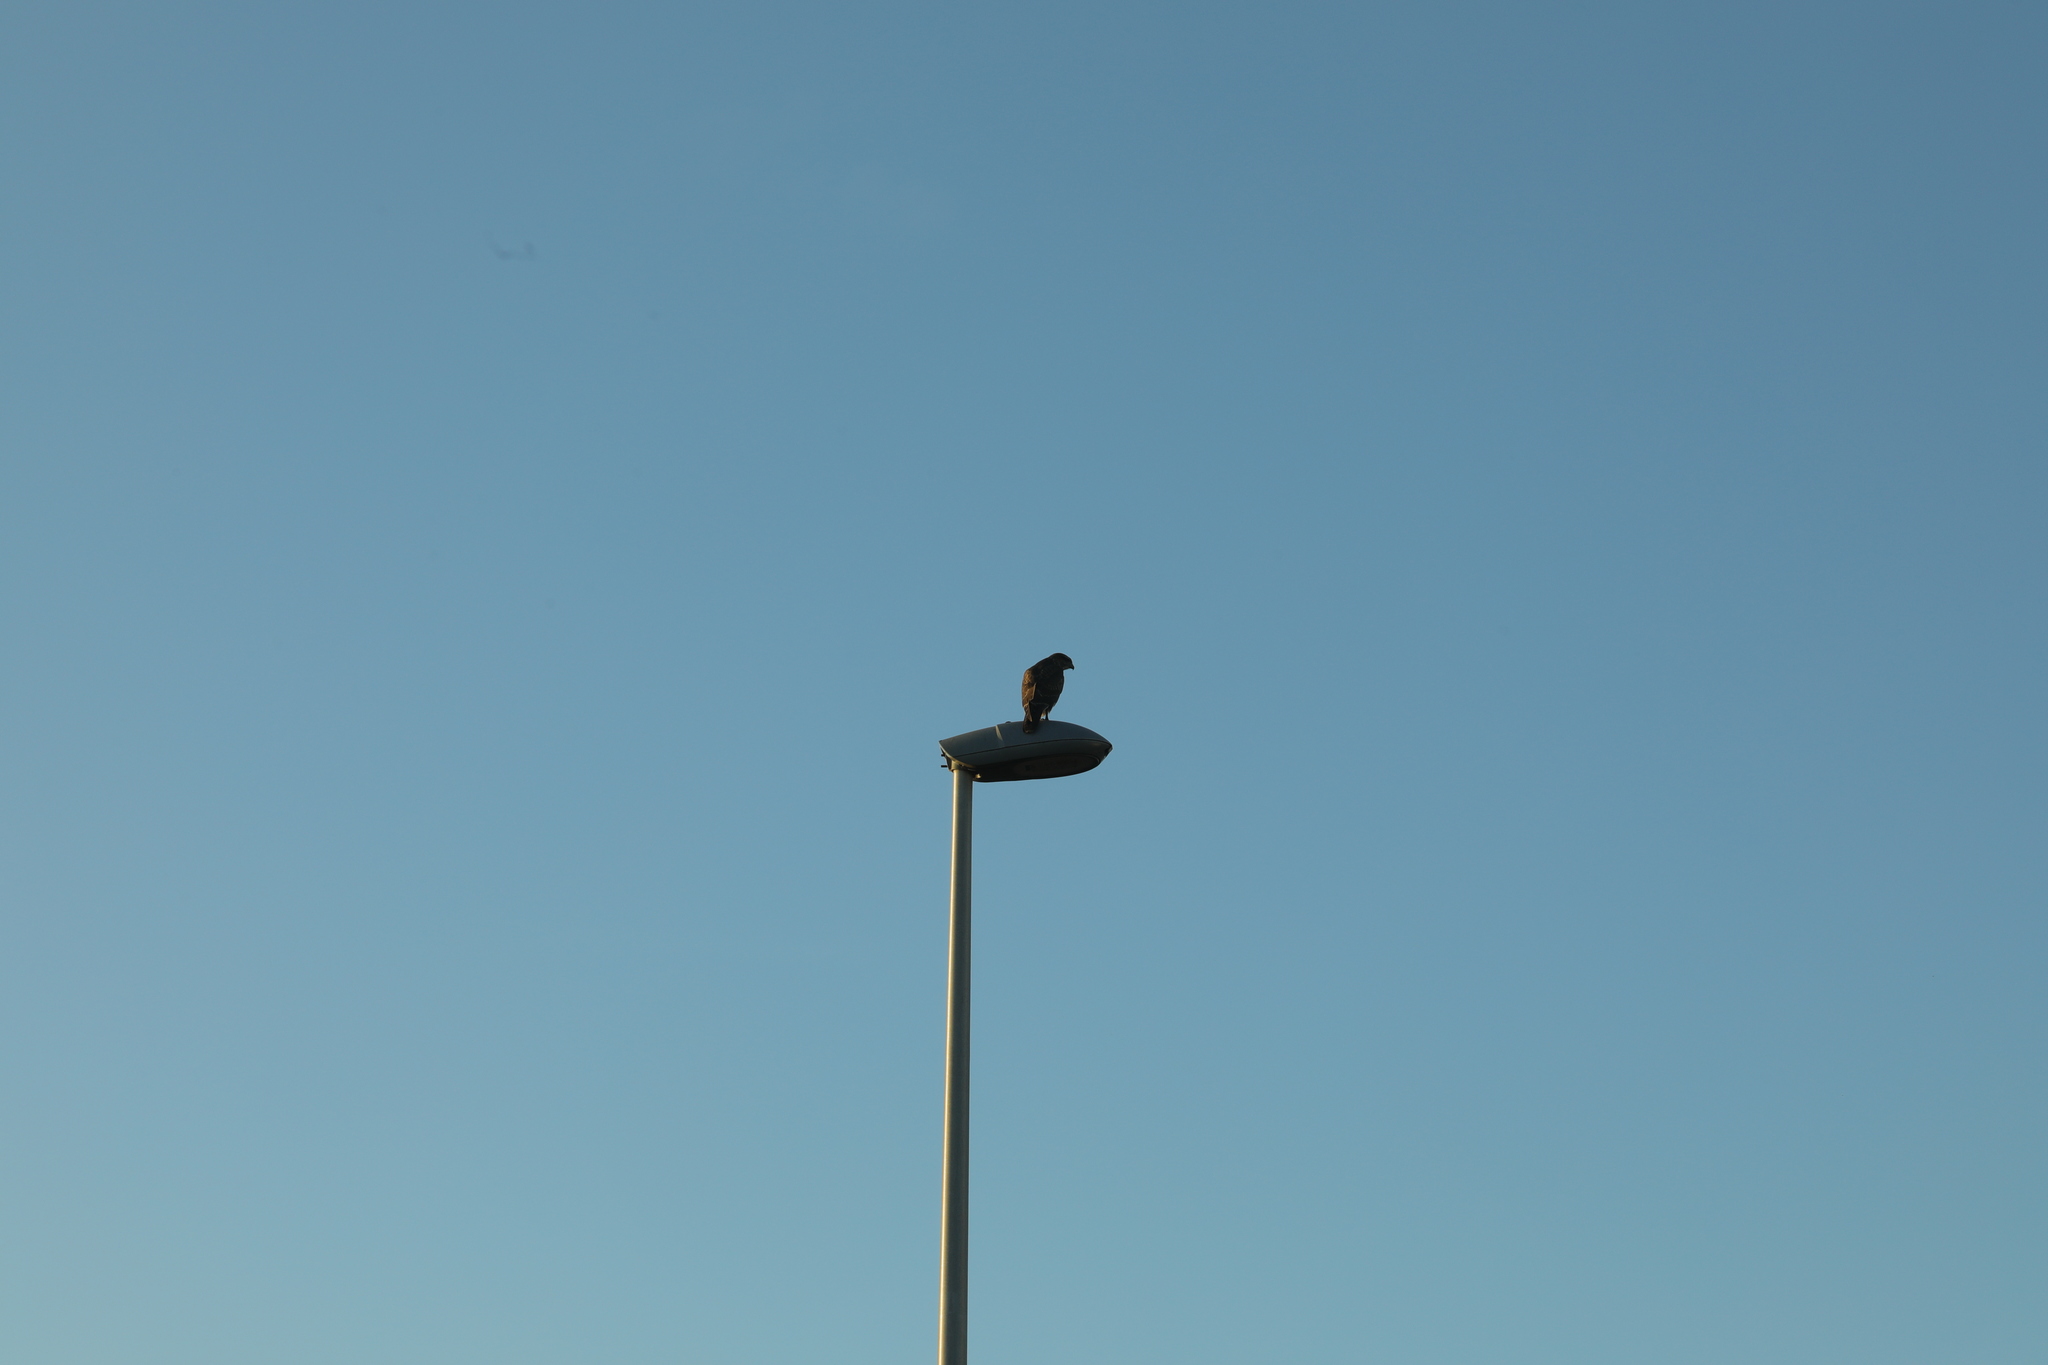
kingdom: Animalia
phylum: Chordata
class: Aves
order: Accipitriformes
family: Accipitridae
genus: Buteo
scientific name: Buteo buteo
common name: Common buzzard
